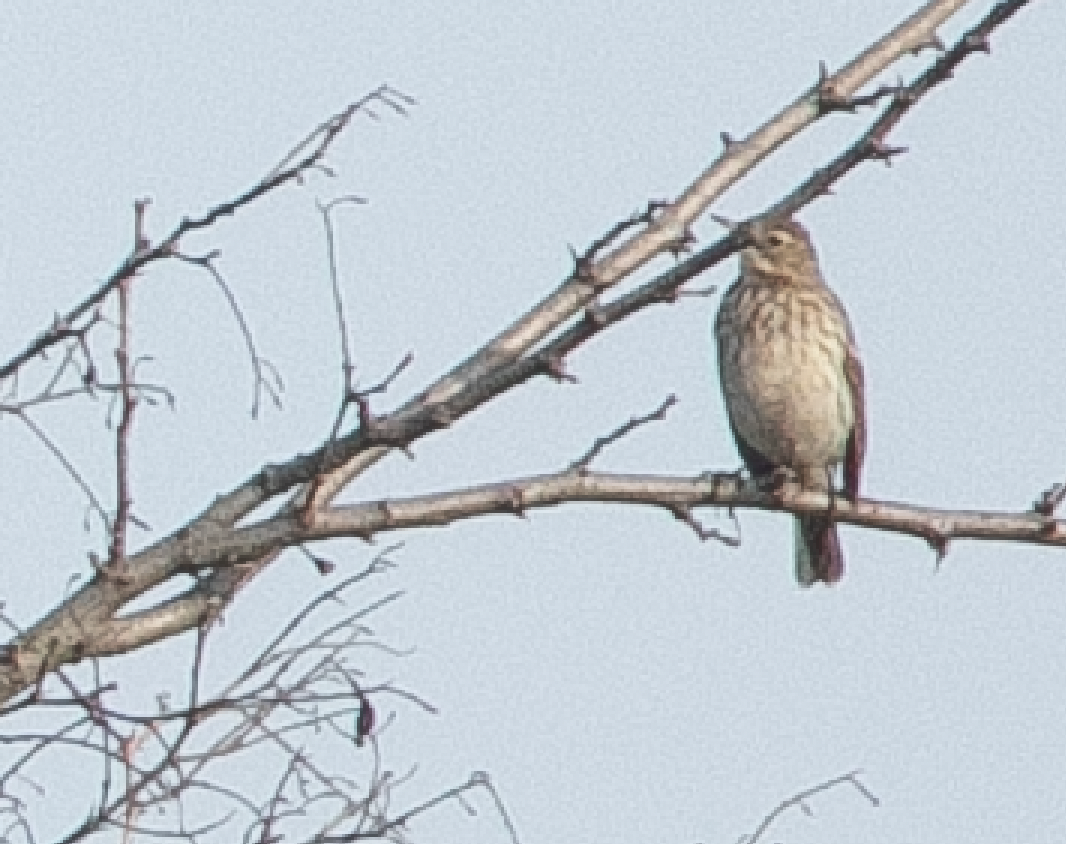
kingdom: Animalia
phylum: Chordata
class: Aves
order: Passeriformes
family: Motacillidae
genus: Anthus
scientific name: Anthus spinoletta
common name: Water pipit
